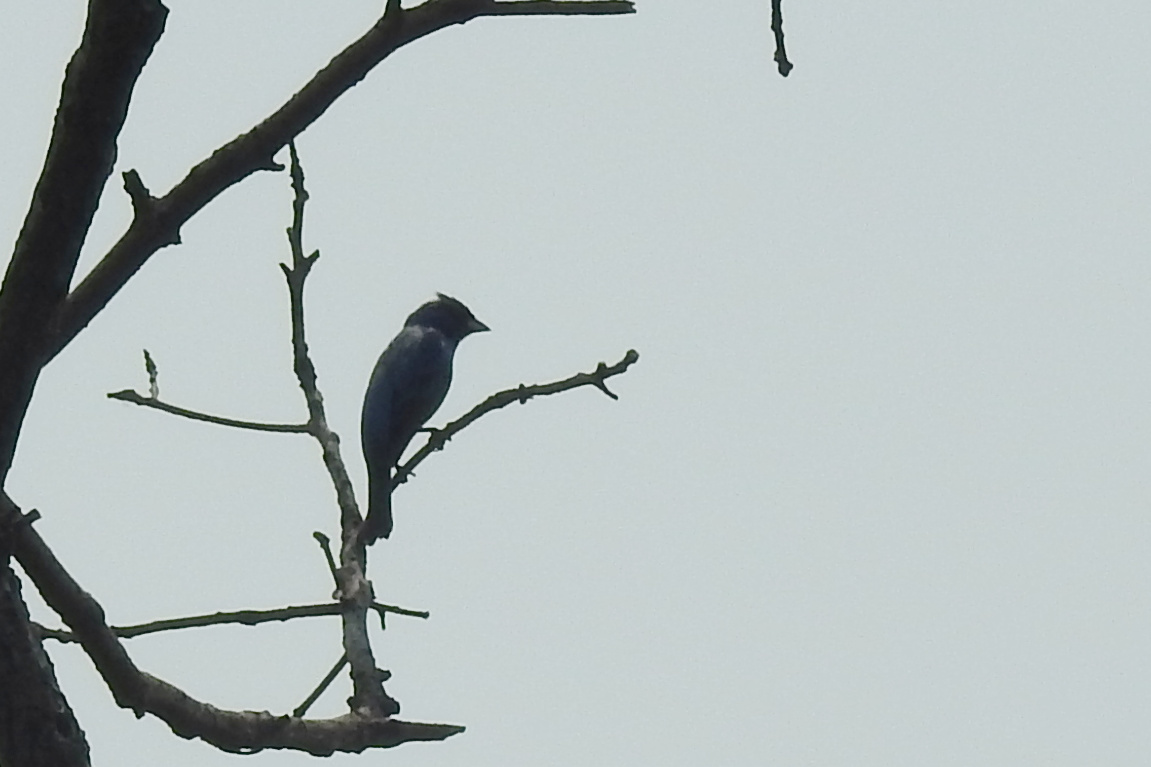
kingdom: Animalia
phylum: Chordata
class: Aves
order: Passeriformes
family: Cardinalidae
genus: Passerina
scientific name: Passerina cyanea
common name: Indigo bunting
